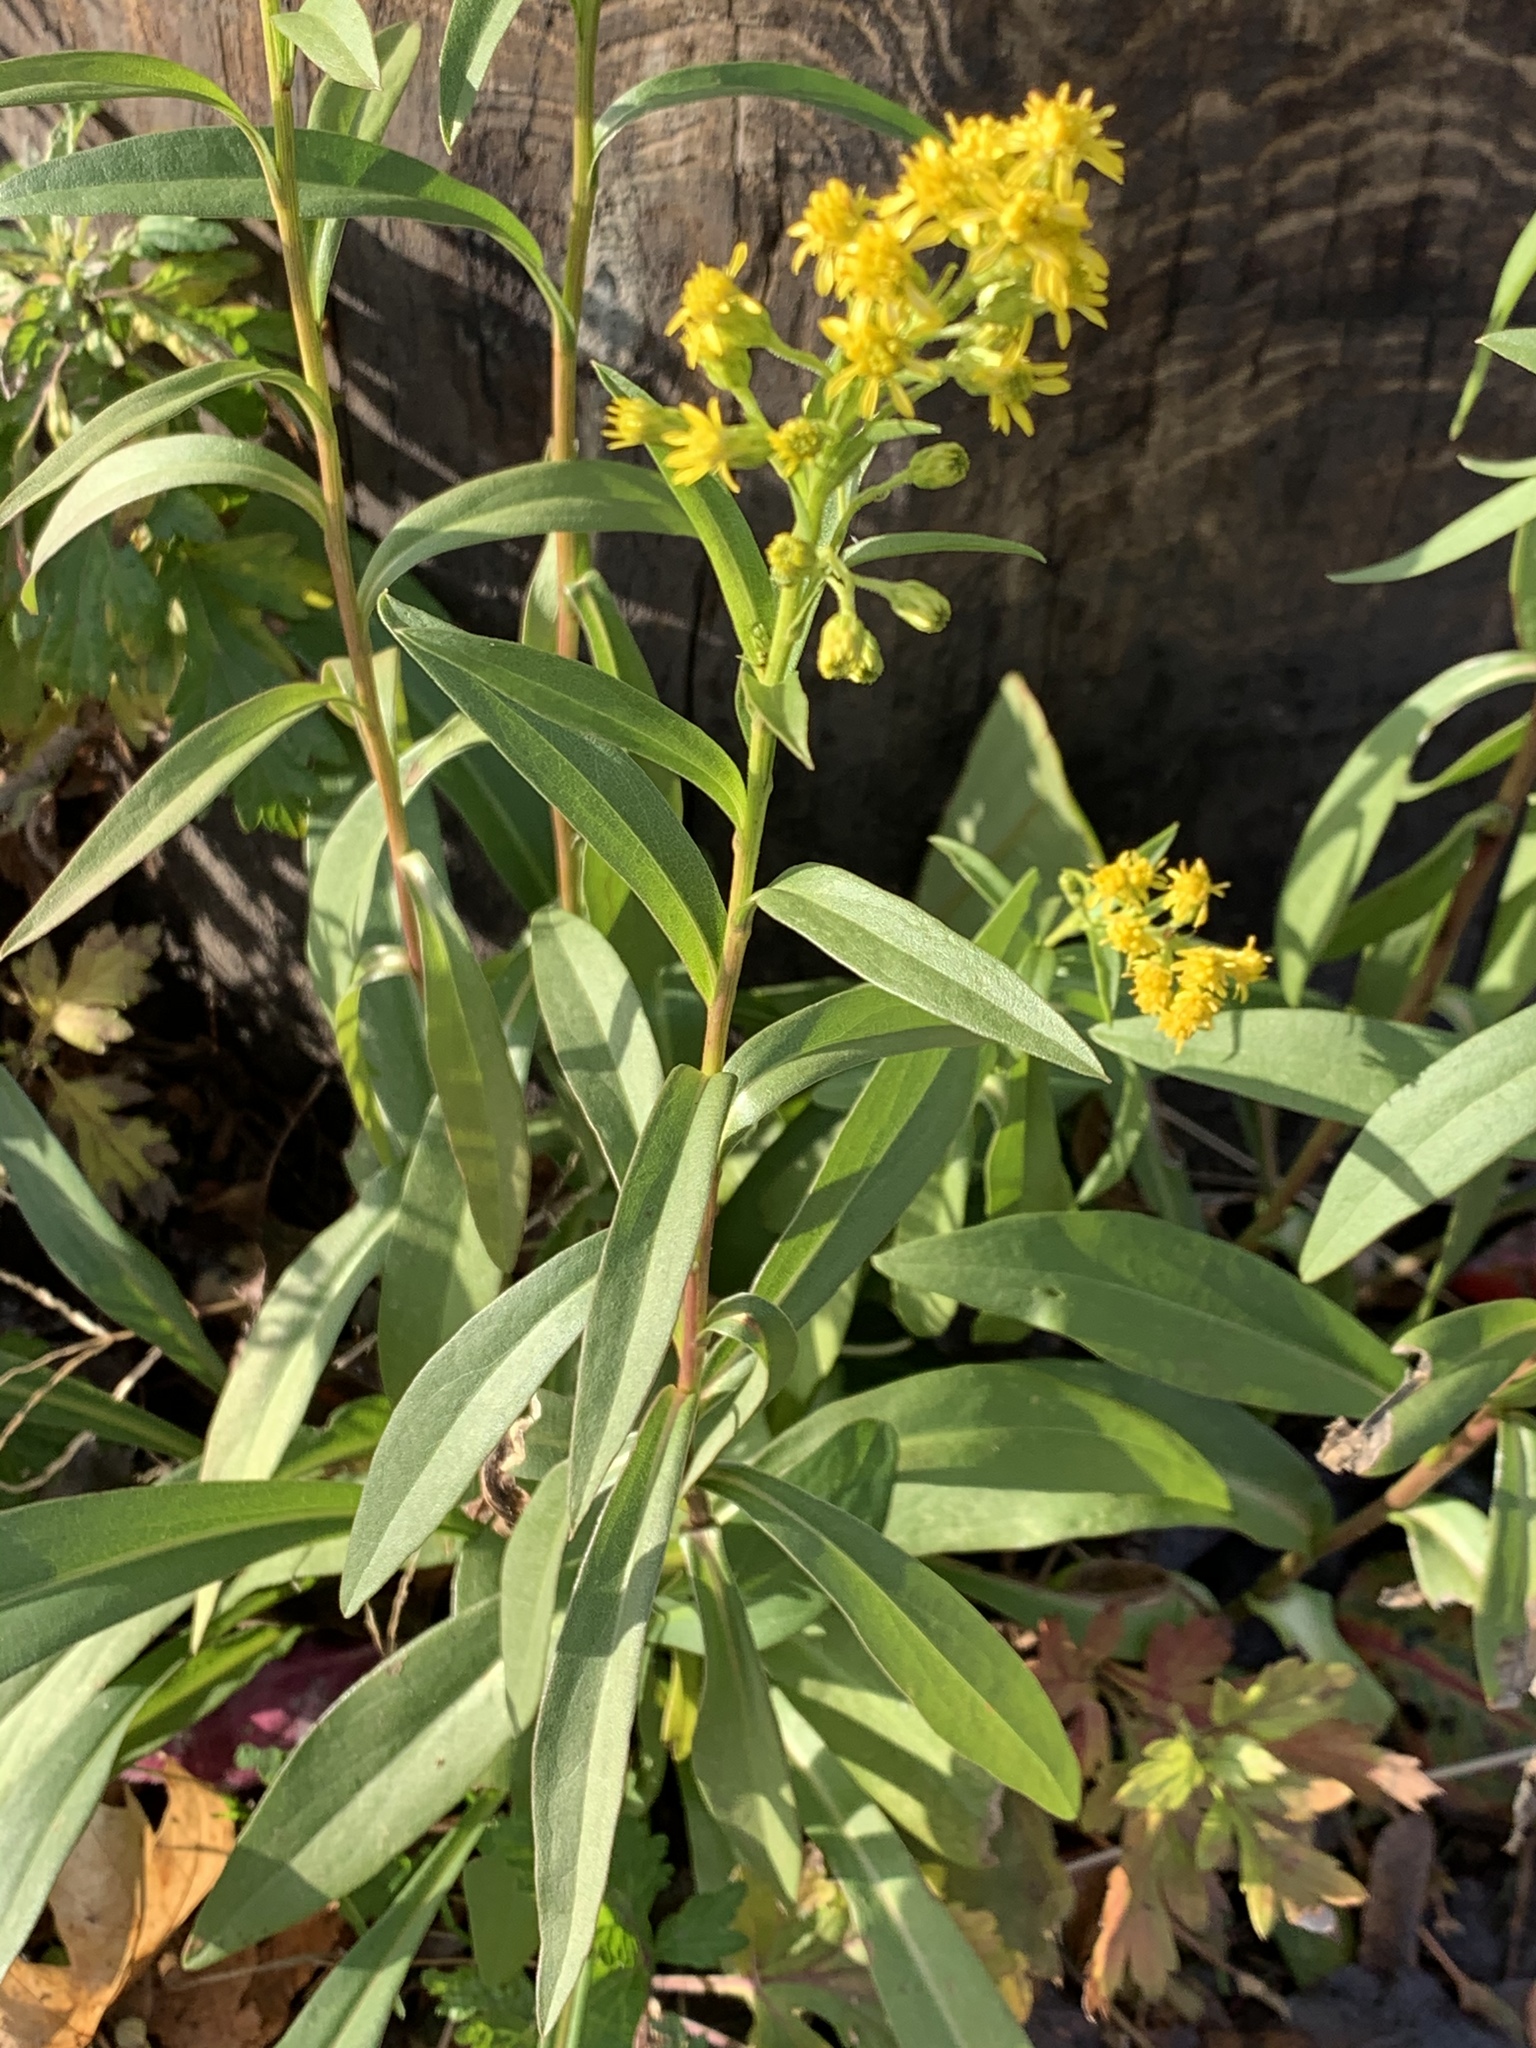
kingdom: Plantae
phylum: Tracheophyta
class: Magnoliopsida
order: Asterales
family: Asteraceae
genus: Solidago
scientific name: Solidago sempervirens
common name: Salt-marsh goldenrod
